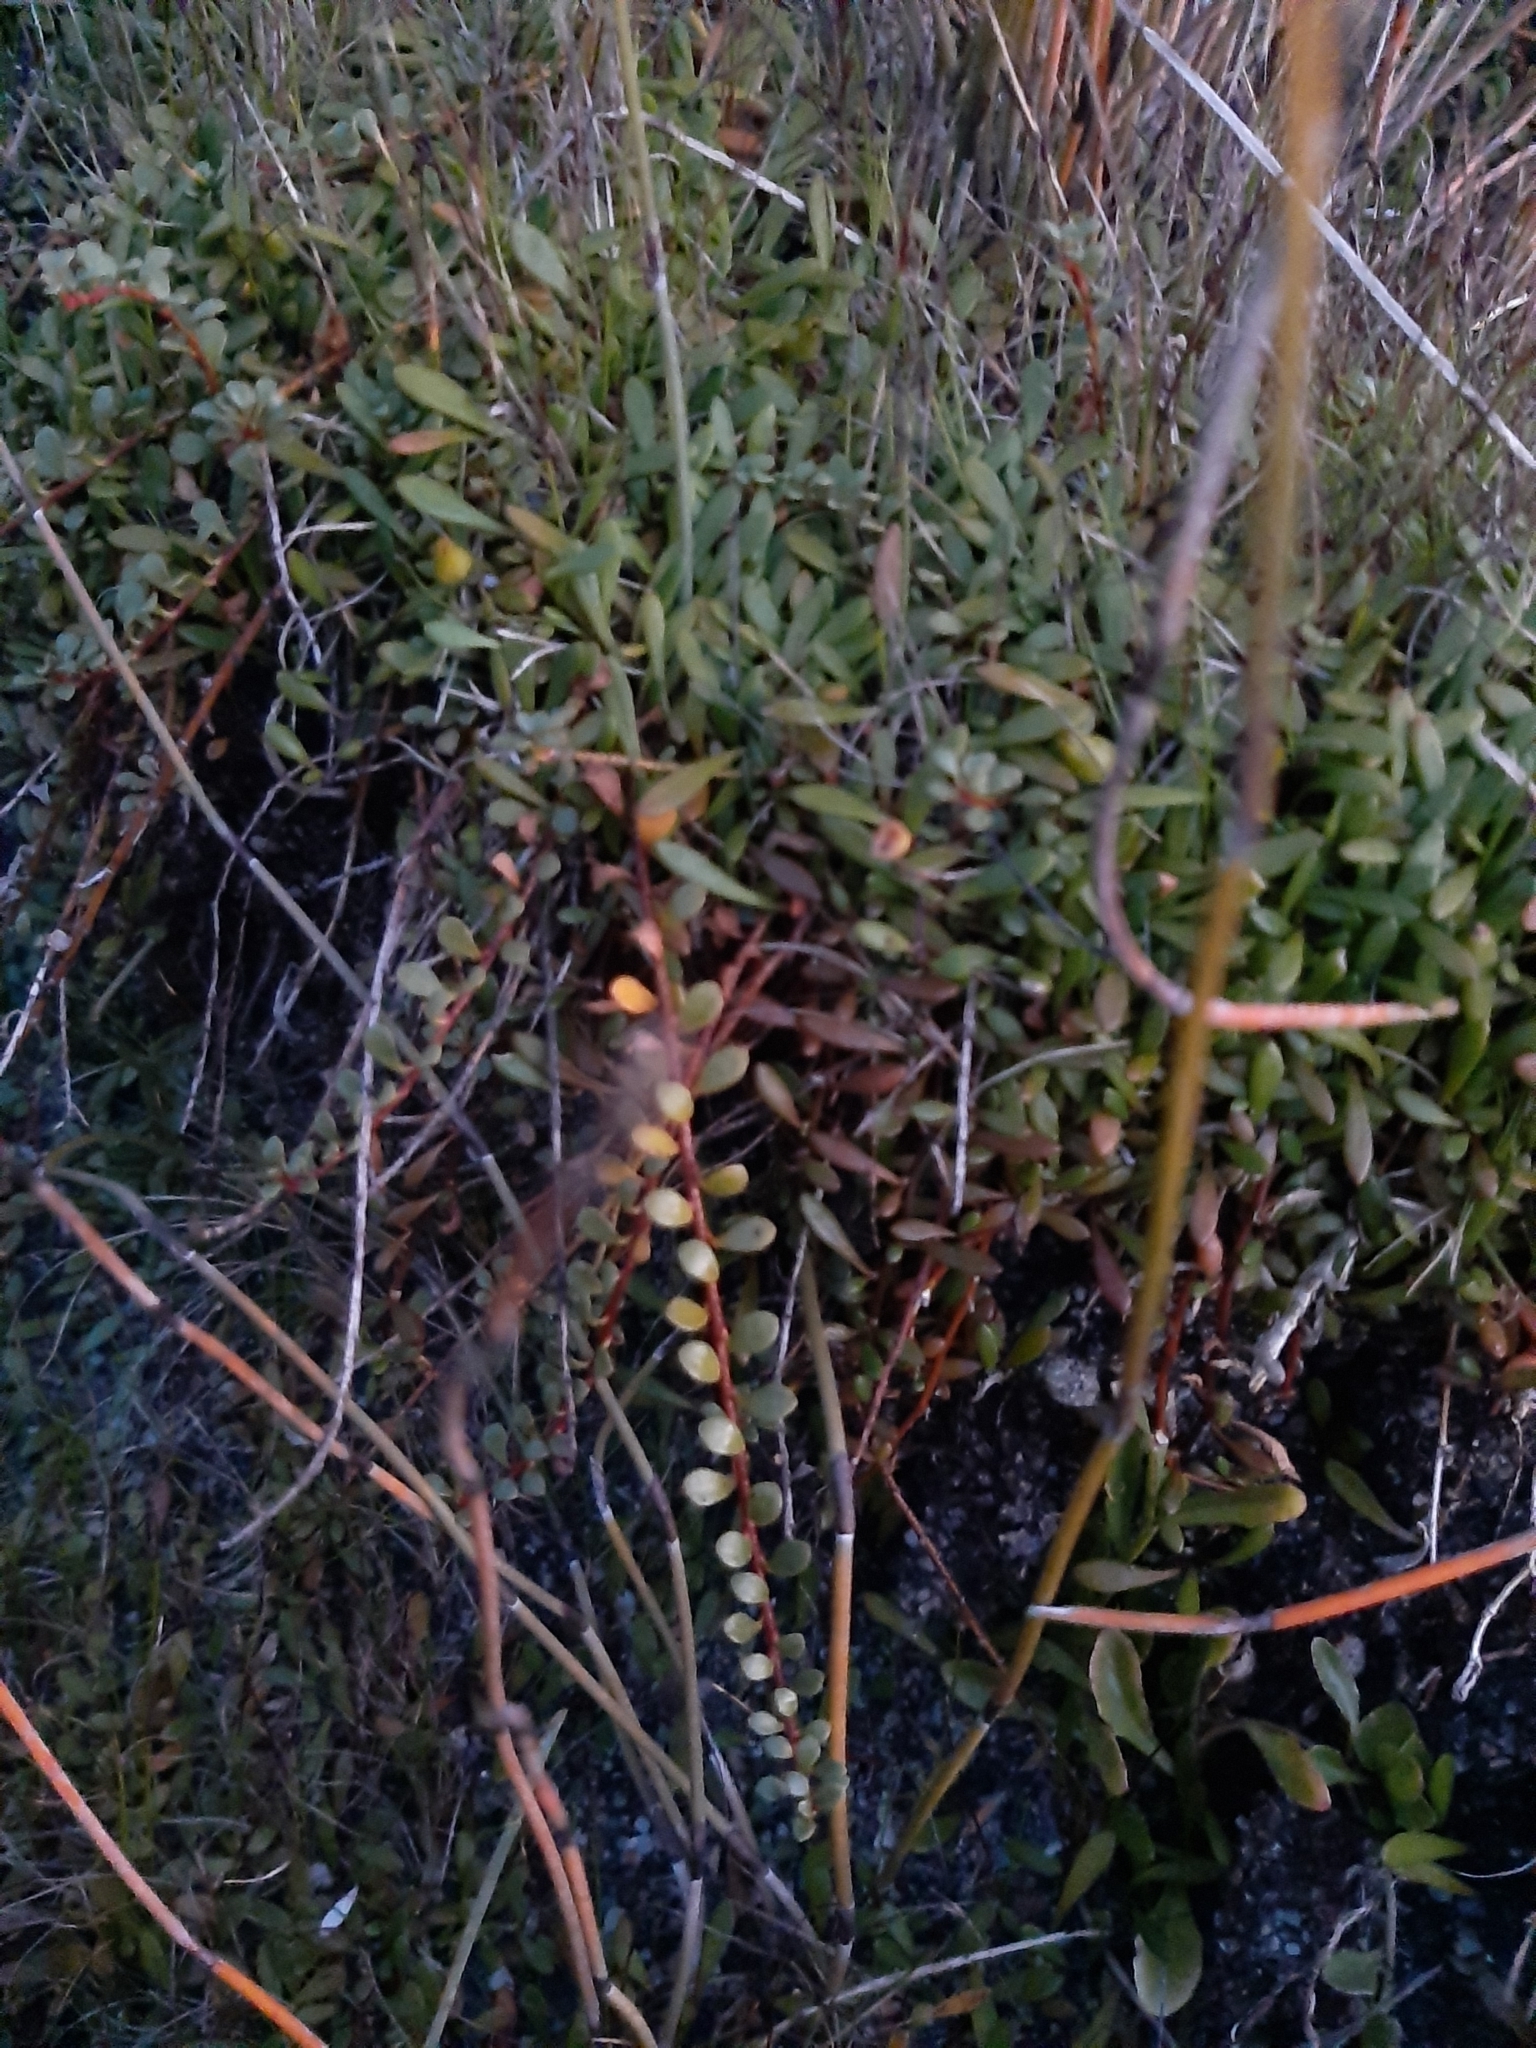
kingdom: Plantae
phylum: Tracheophyta
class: Magnoliopsida
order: Ericales
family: Primulaceae
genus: Samolus
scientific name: Samolus repens
